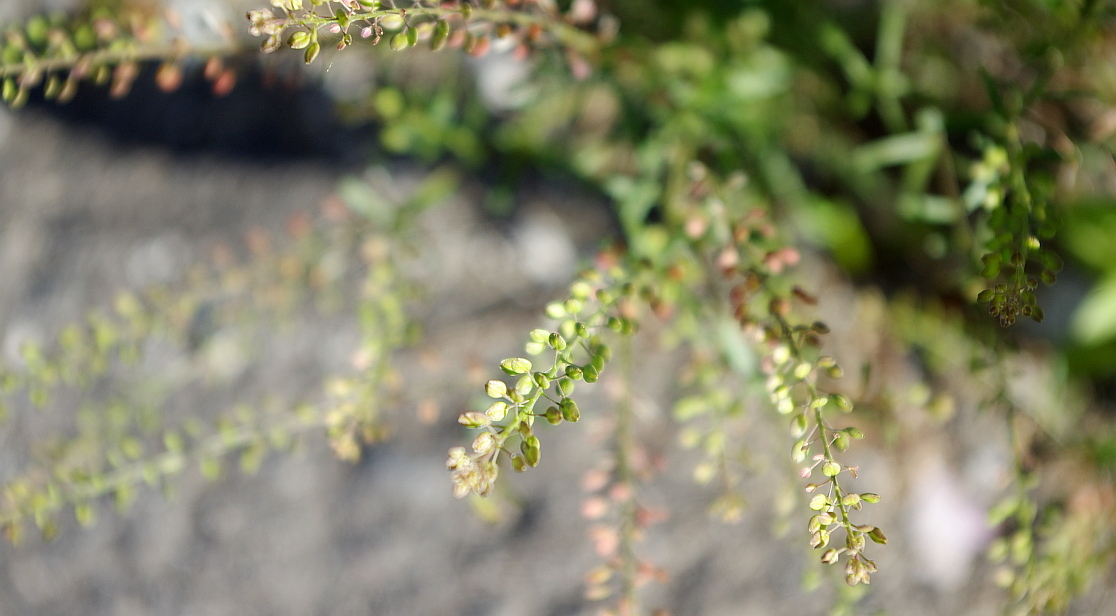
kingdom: Plantae
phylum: Tracheophyta
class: Magnoliopsida
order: Brassicales
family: Brassicaceae
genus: Lepidium
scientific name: Lepidium ruderale
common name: Narrow-leaved pepperwort
